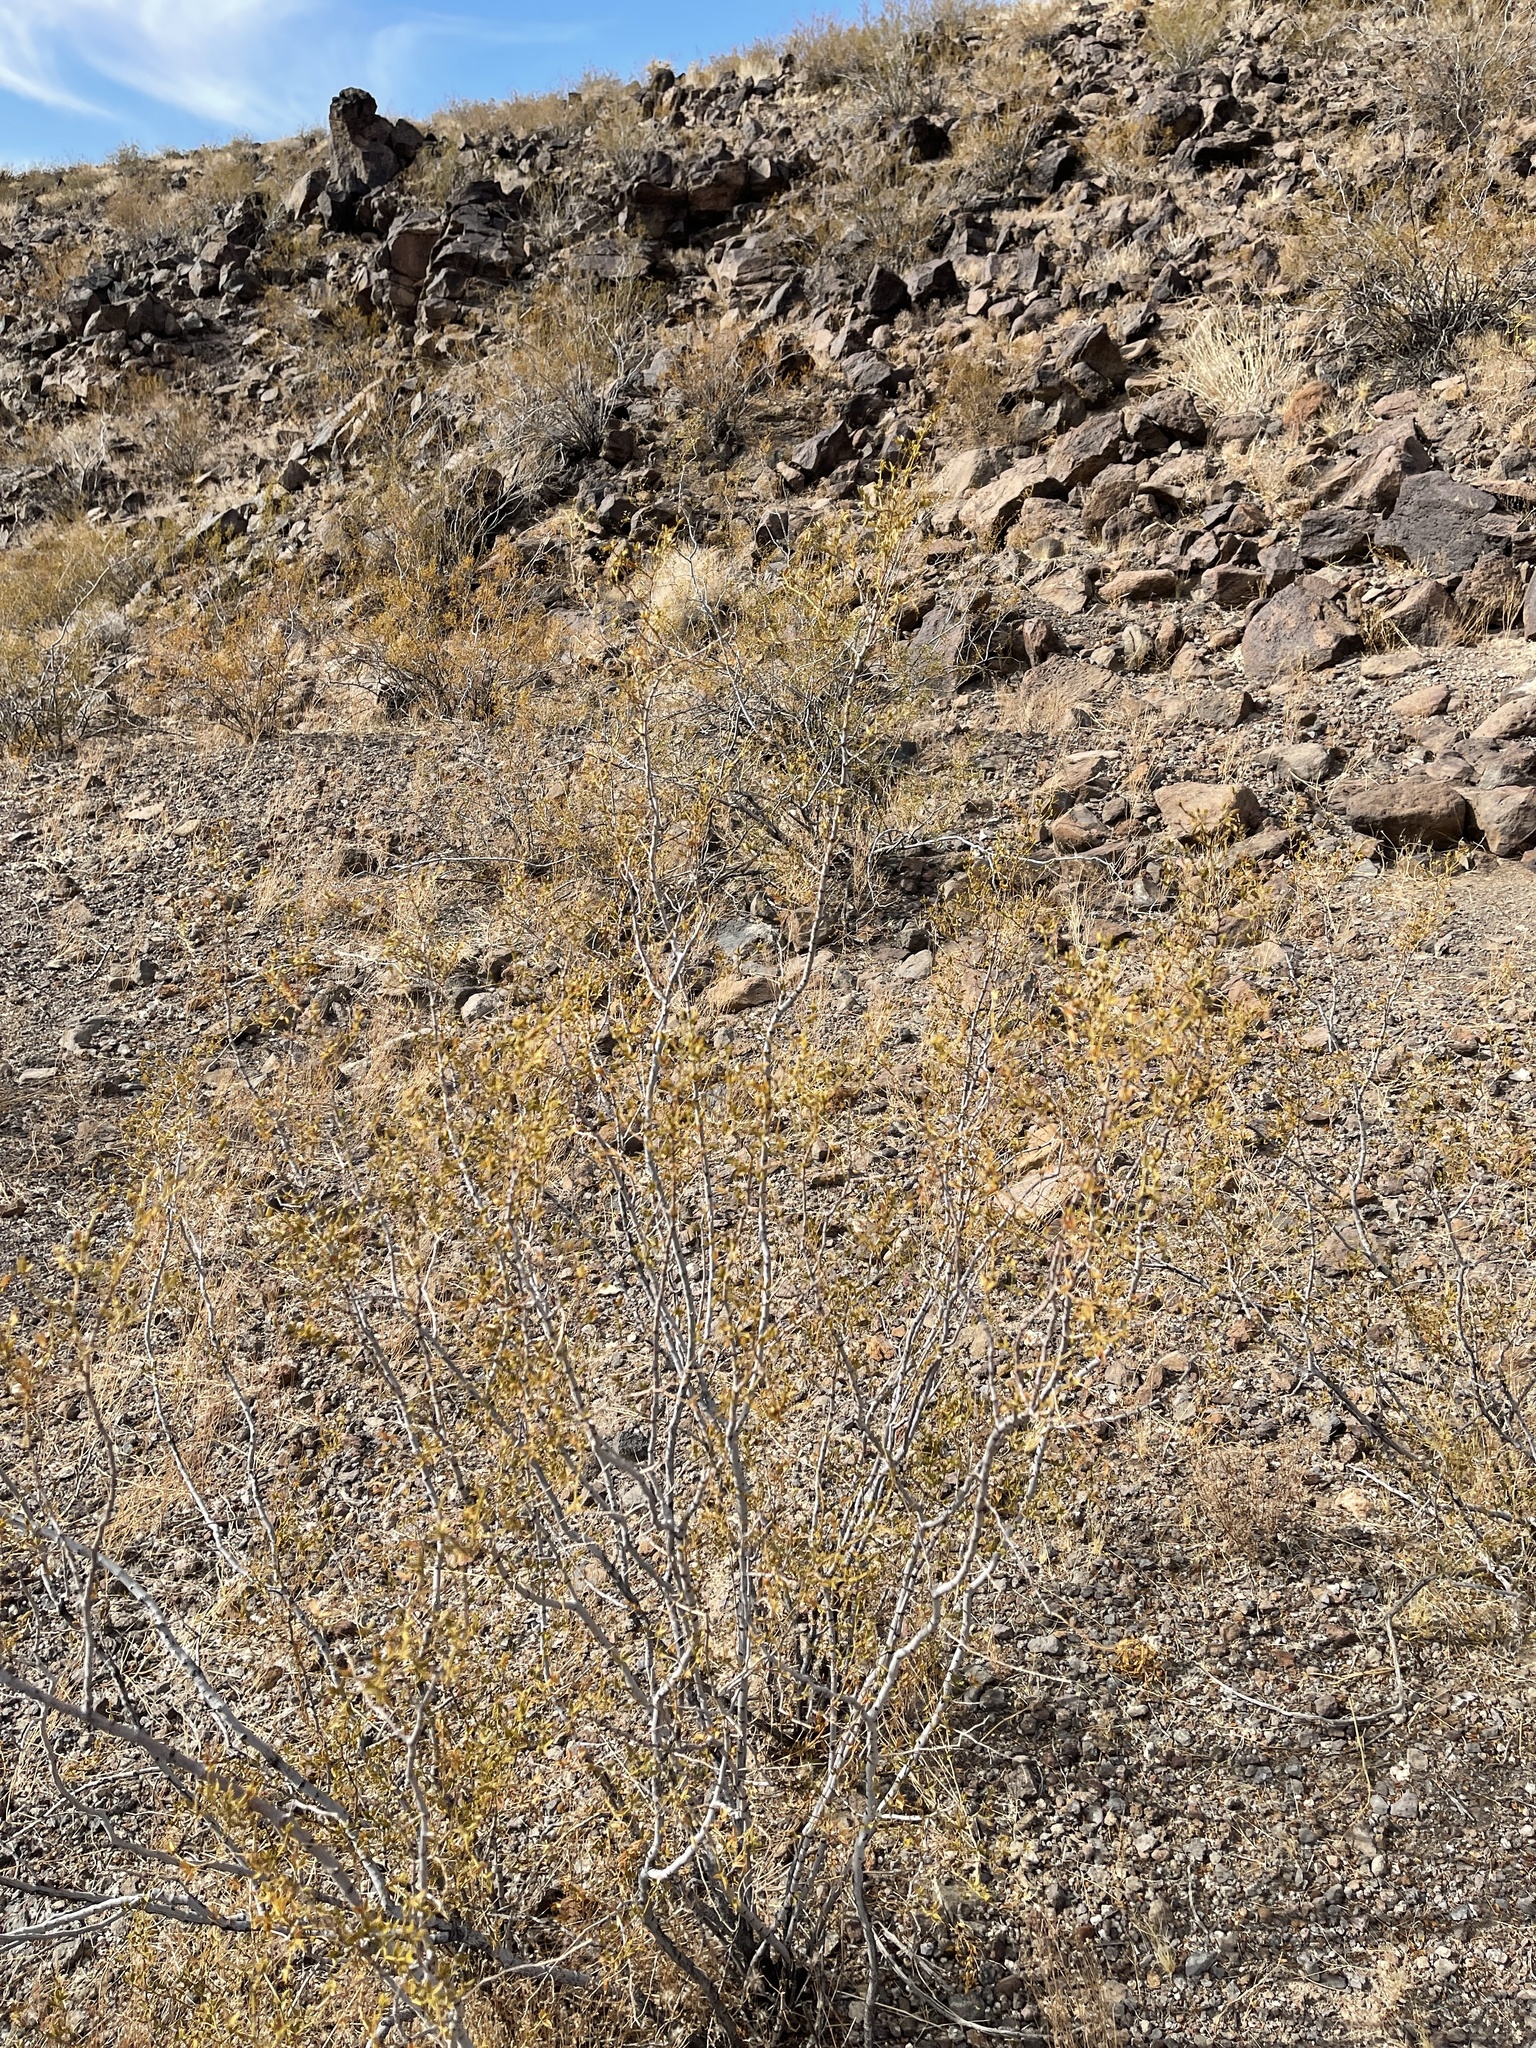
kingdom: Plantae
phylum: Tracheophyta
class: Magnoliopsida
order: Zygophyllales
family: Zygophyllaceae
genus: Larrea
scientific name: Larrea tridentata
